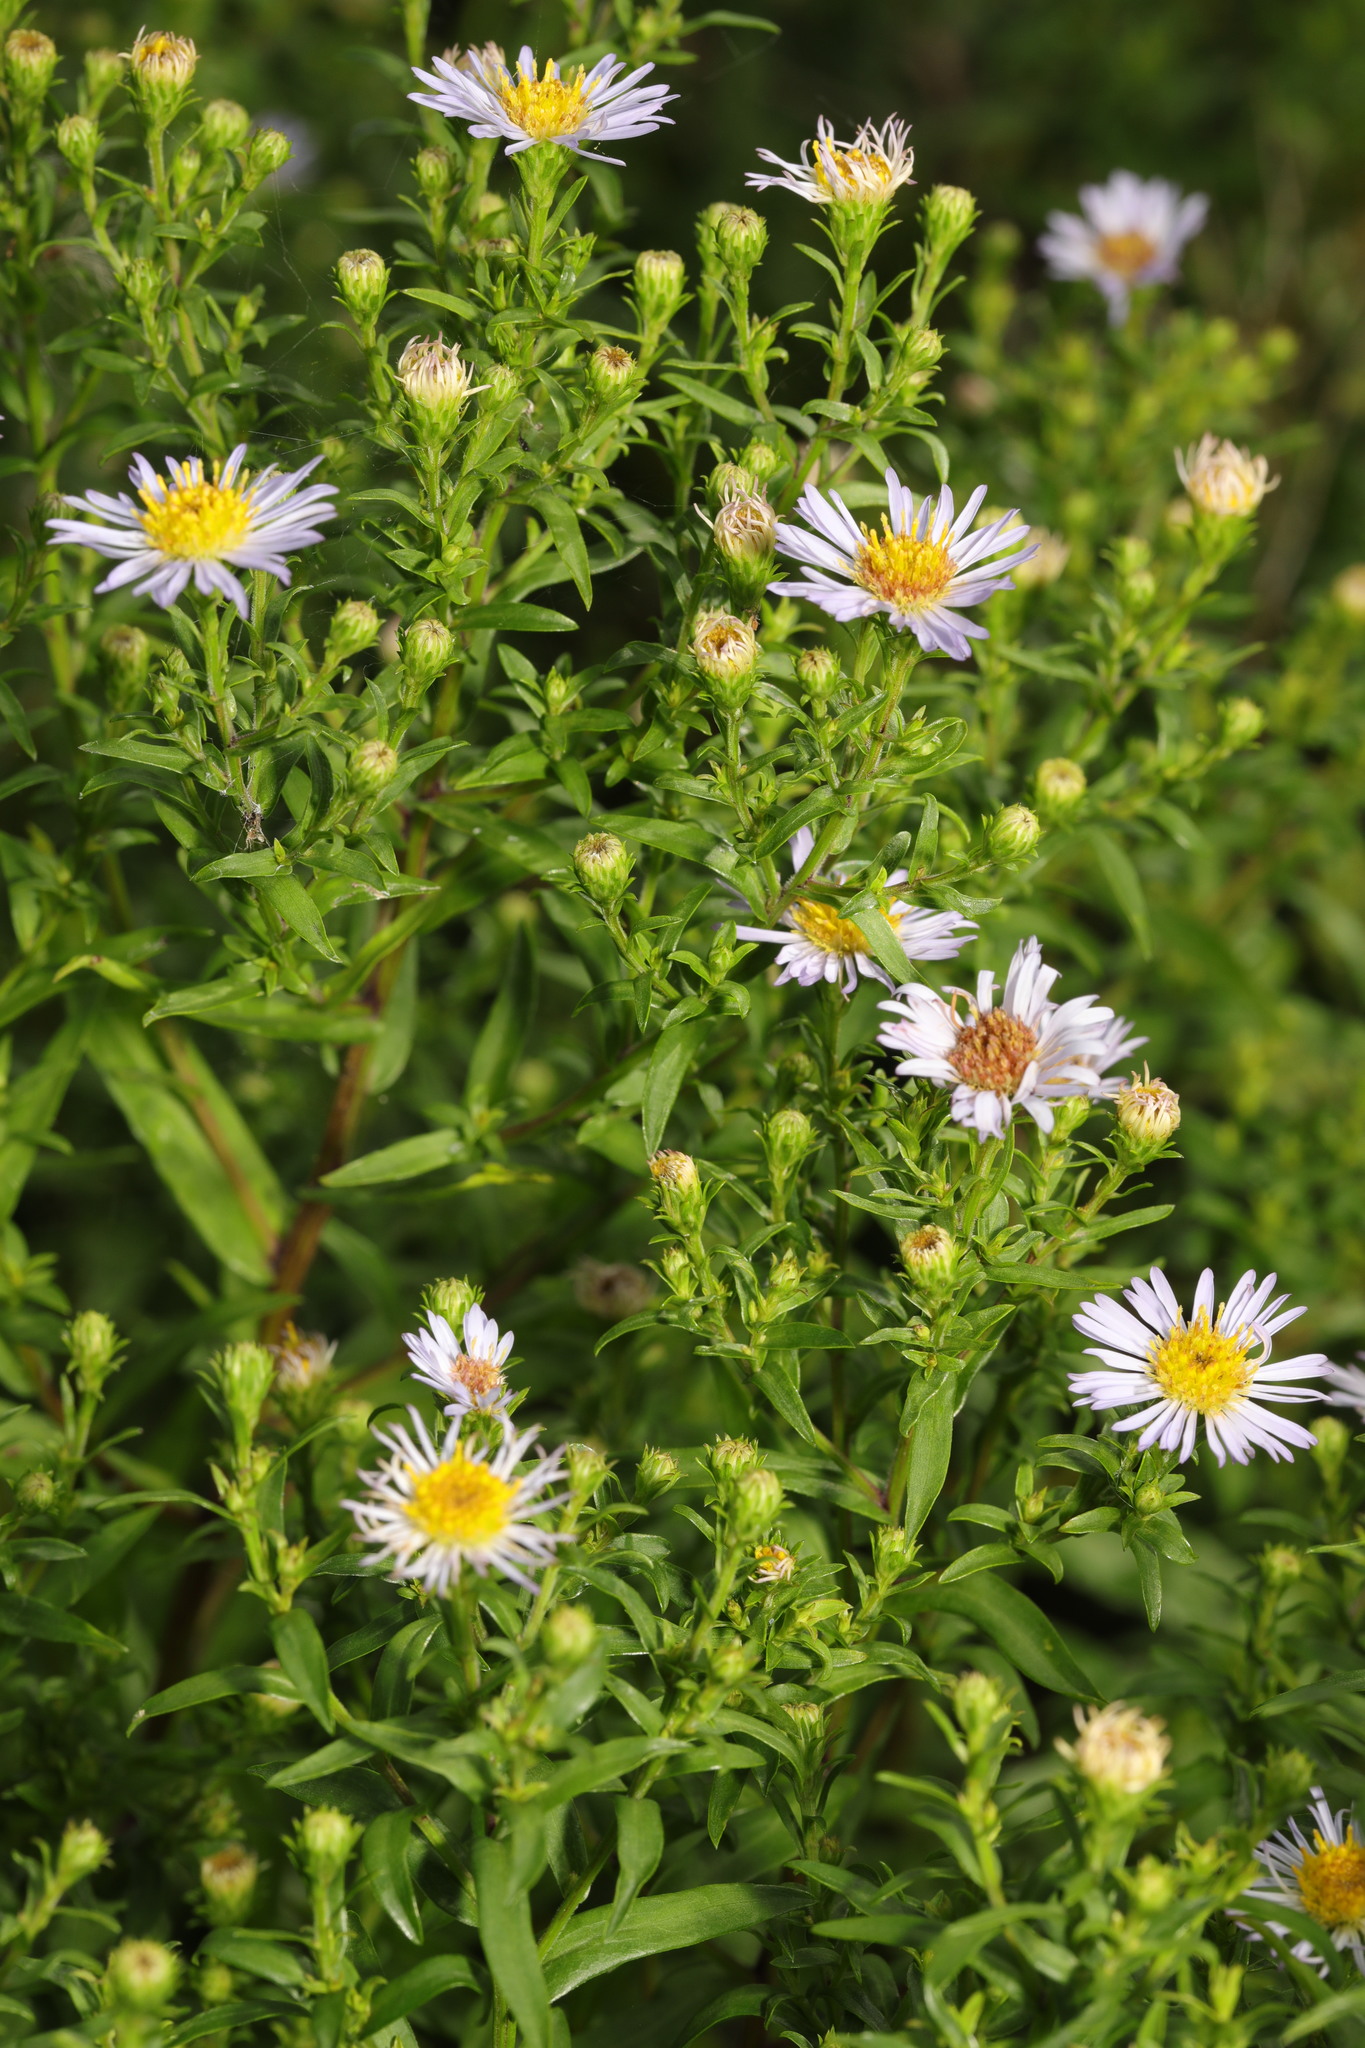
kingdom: Plantae
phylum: Tracheophyta
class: Magnoliopsida
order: Asterales
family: Asteraceae
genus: Symphyotrichum
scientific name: Symphyotrichum novi-belgii
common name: Michaelmas daisy
